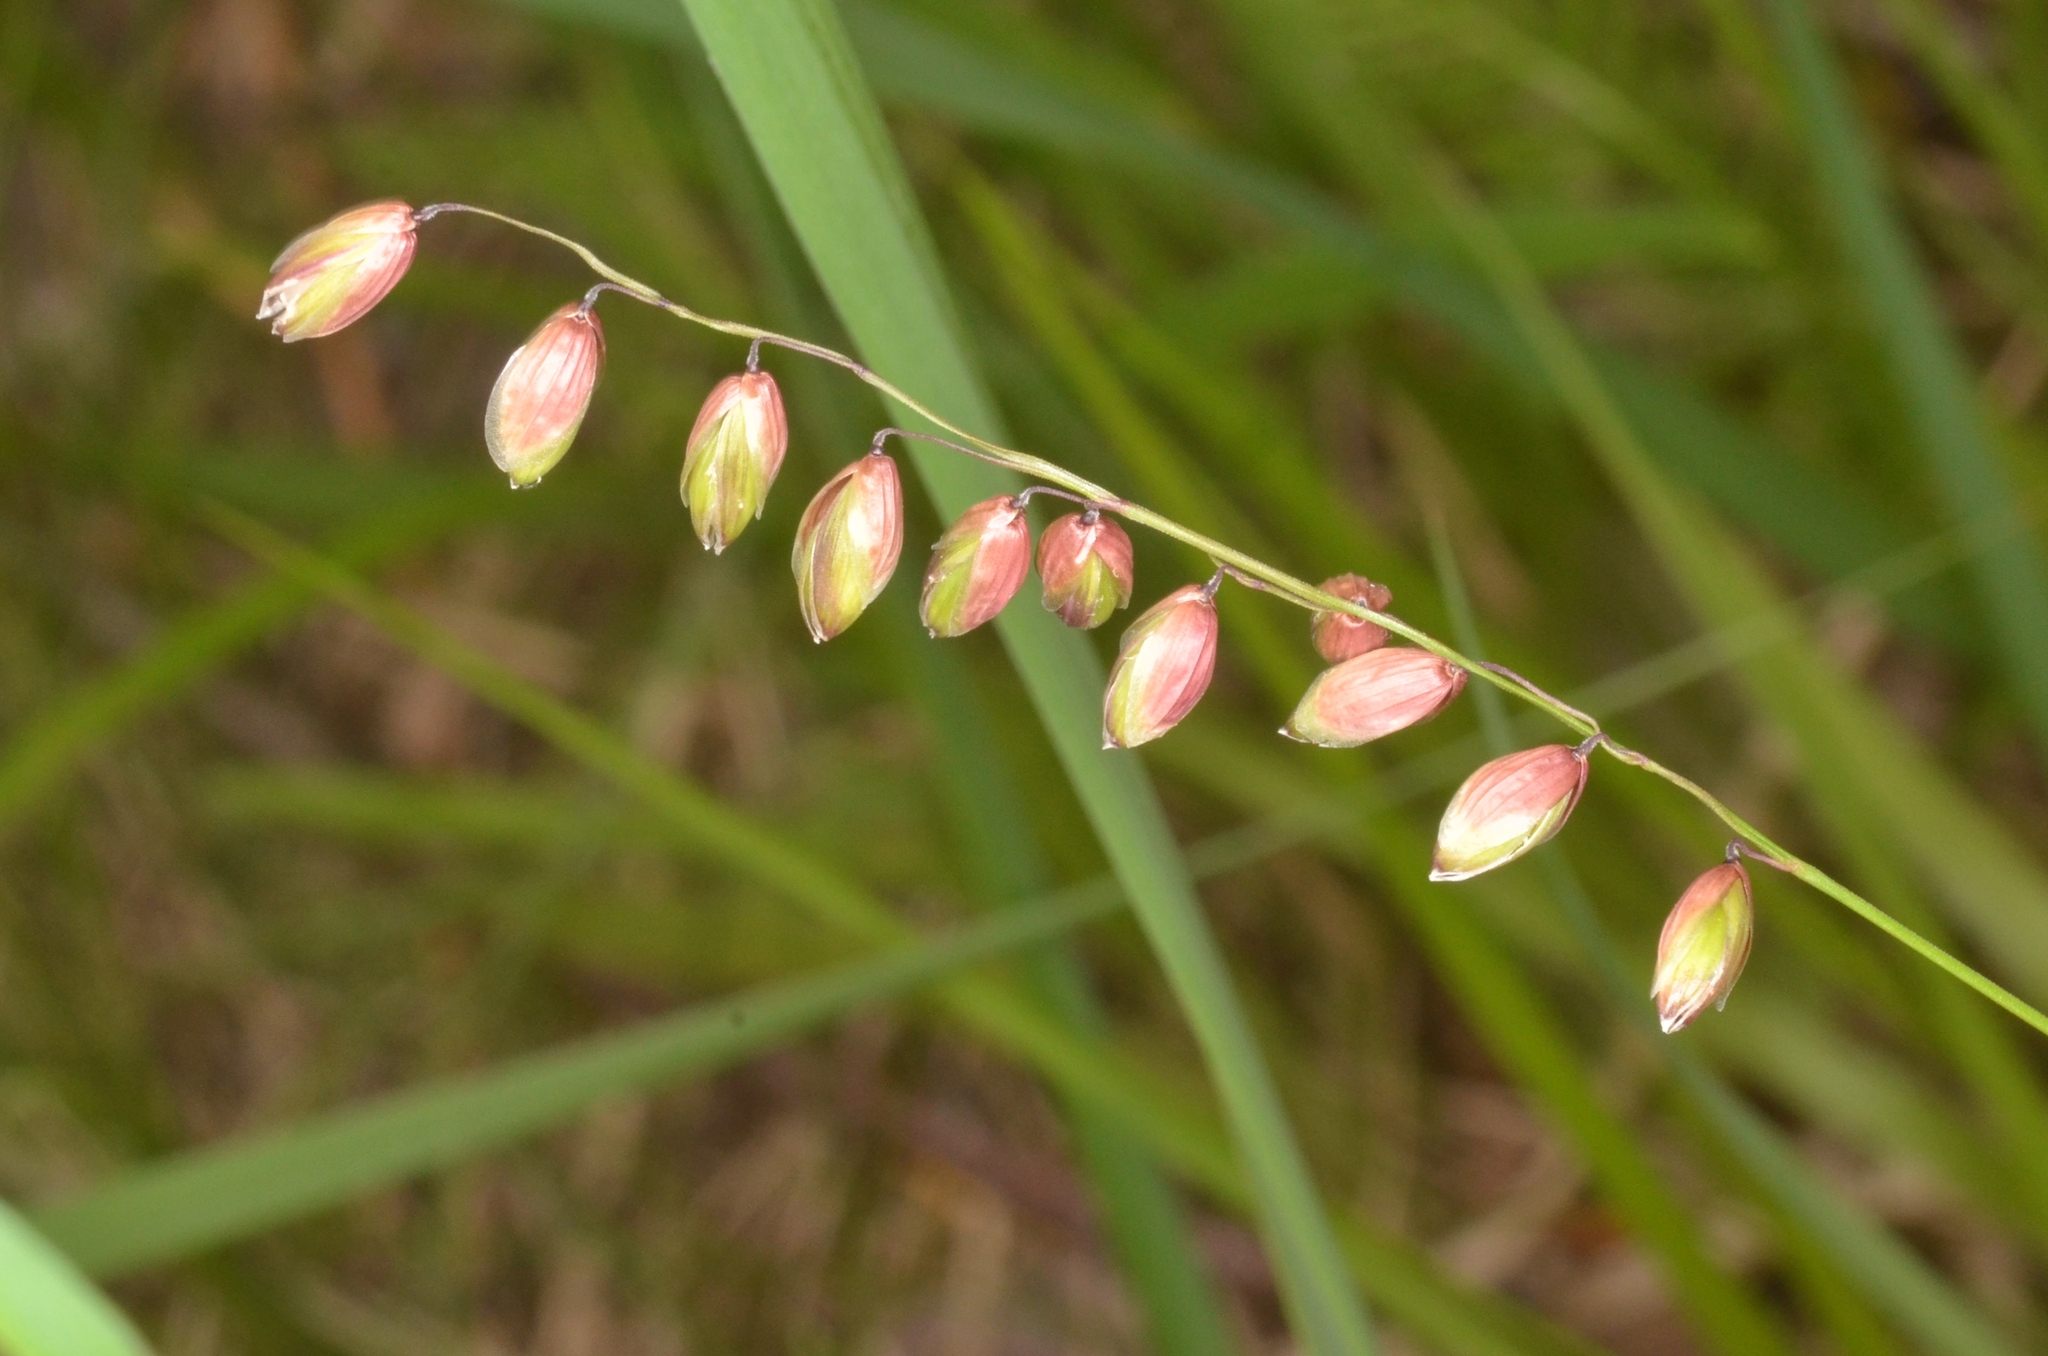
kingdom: Plantae
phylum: Tracheophyta
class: Liliopsida
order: Poales
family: Poaceae
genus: Melica
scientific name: Melica nutans
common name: Mountain melick
